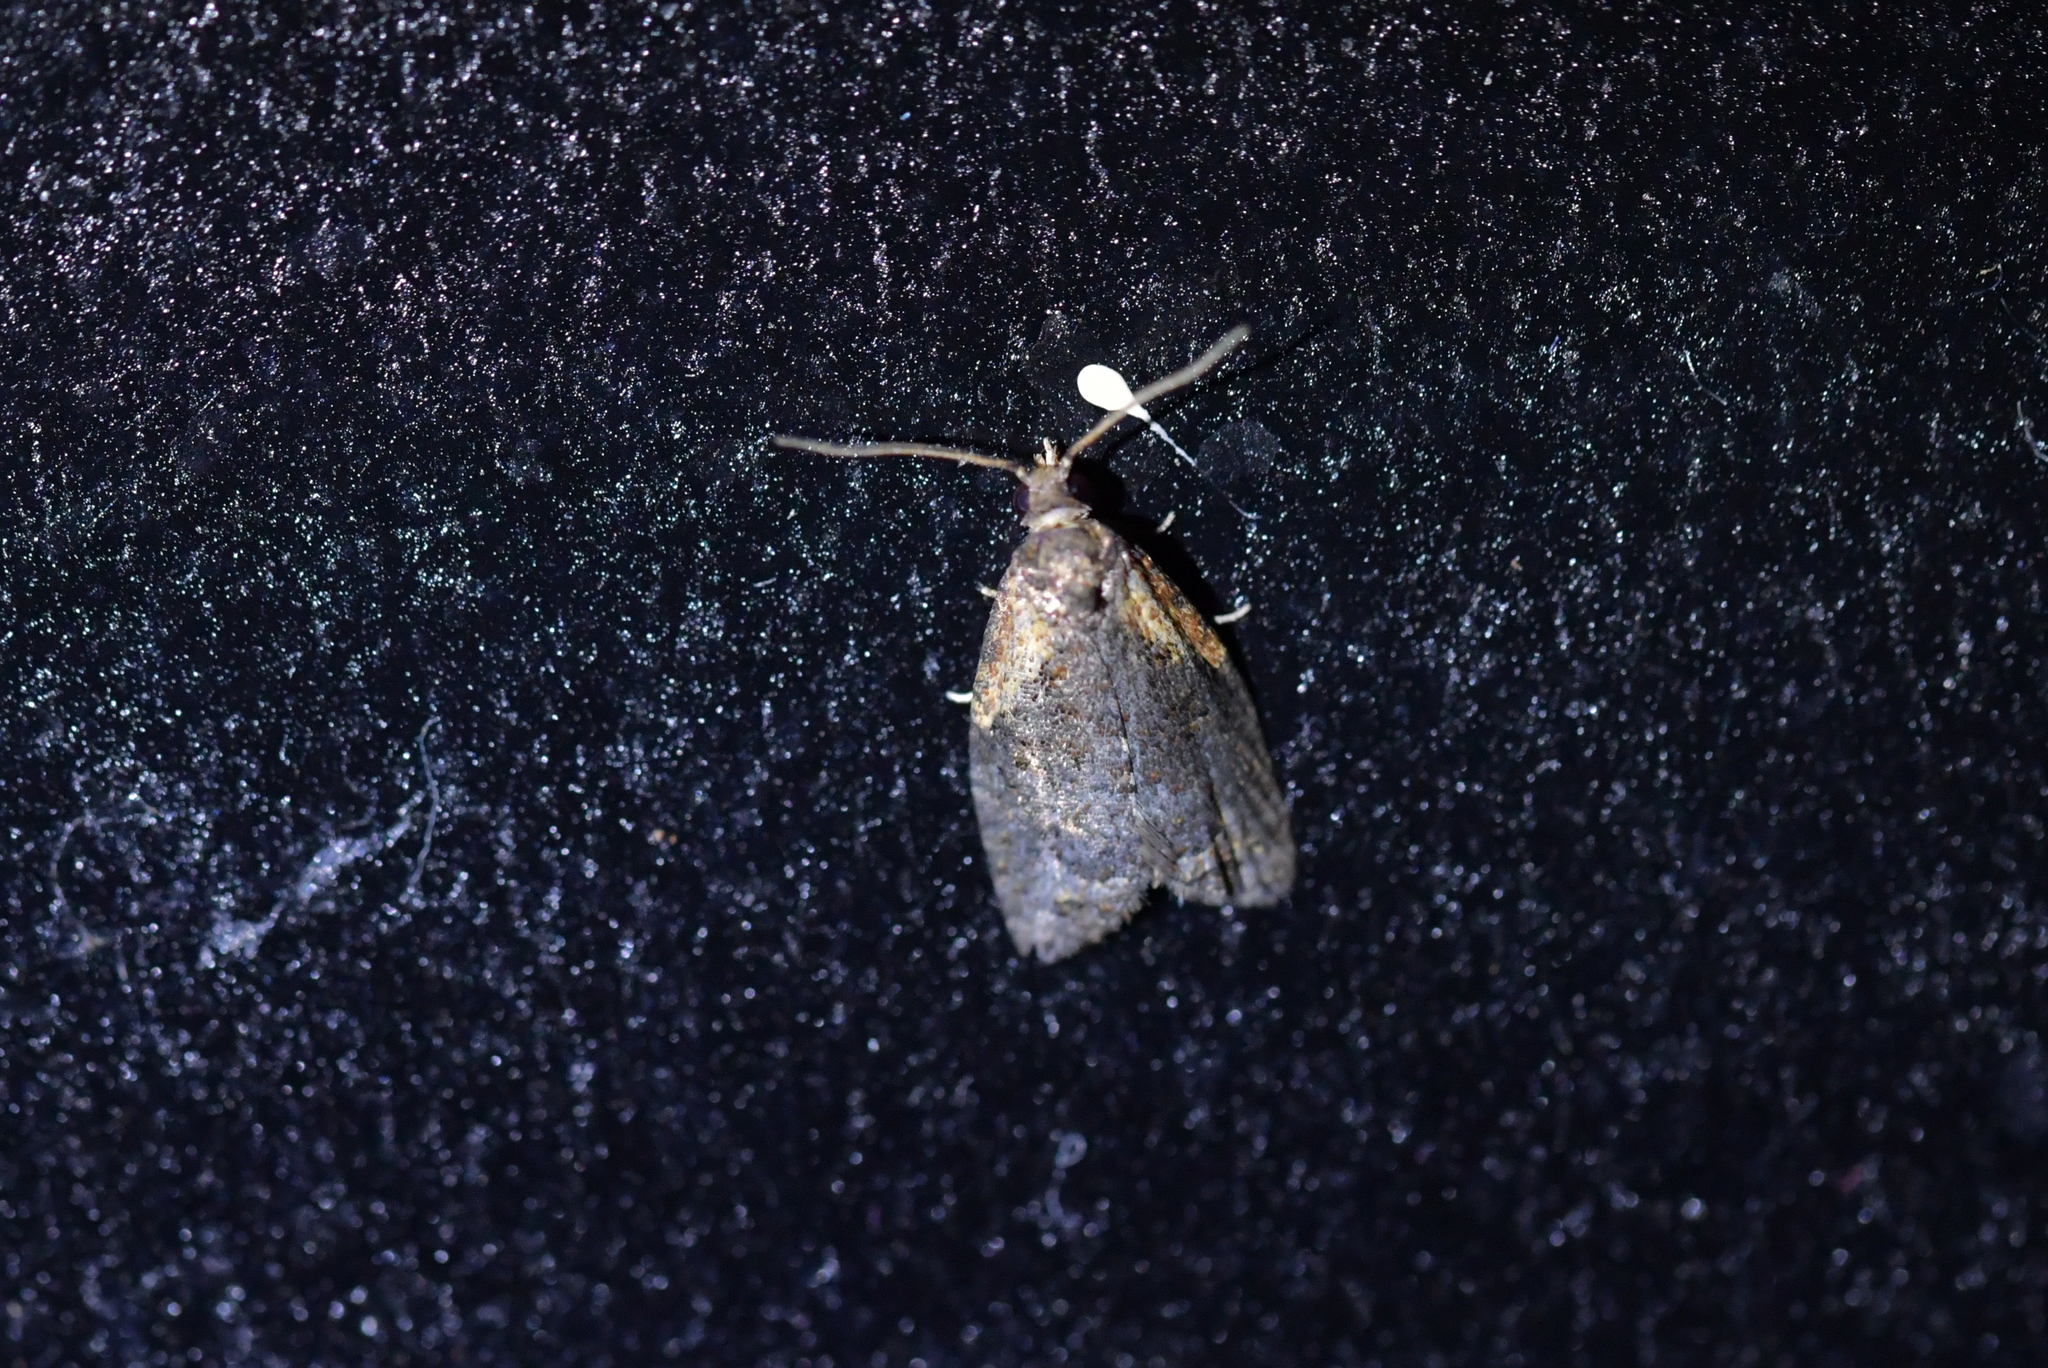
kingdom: Animalia
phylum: Arthropoda
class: Insecta
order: Lepidoptera
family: Tortricidae
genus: Capua
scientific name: Capua intractana
